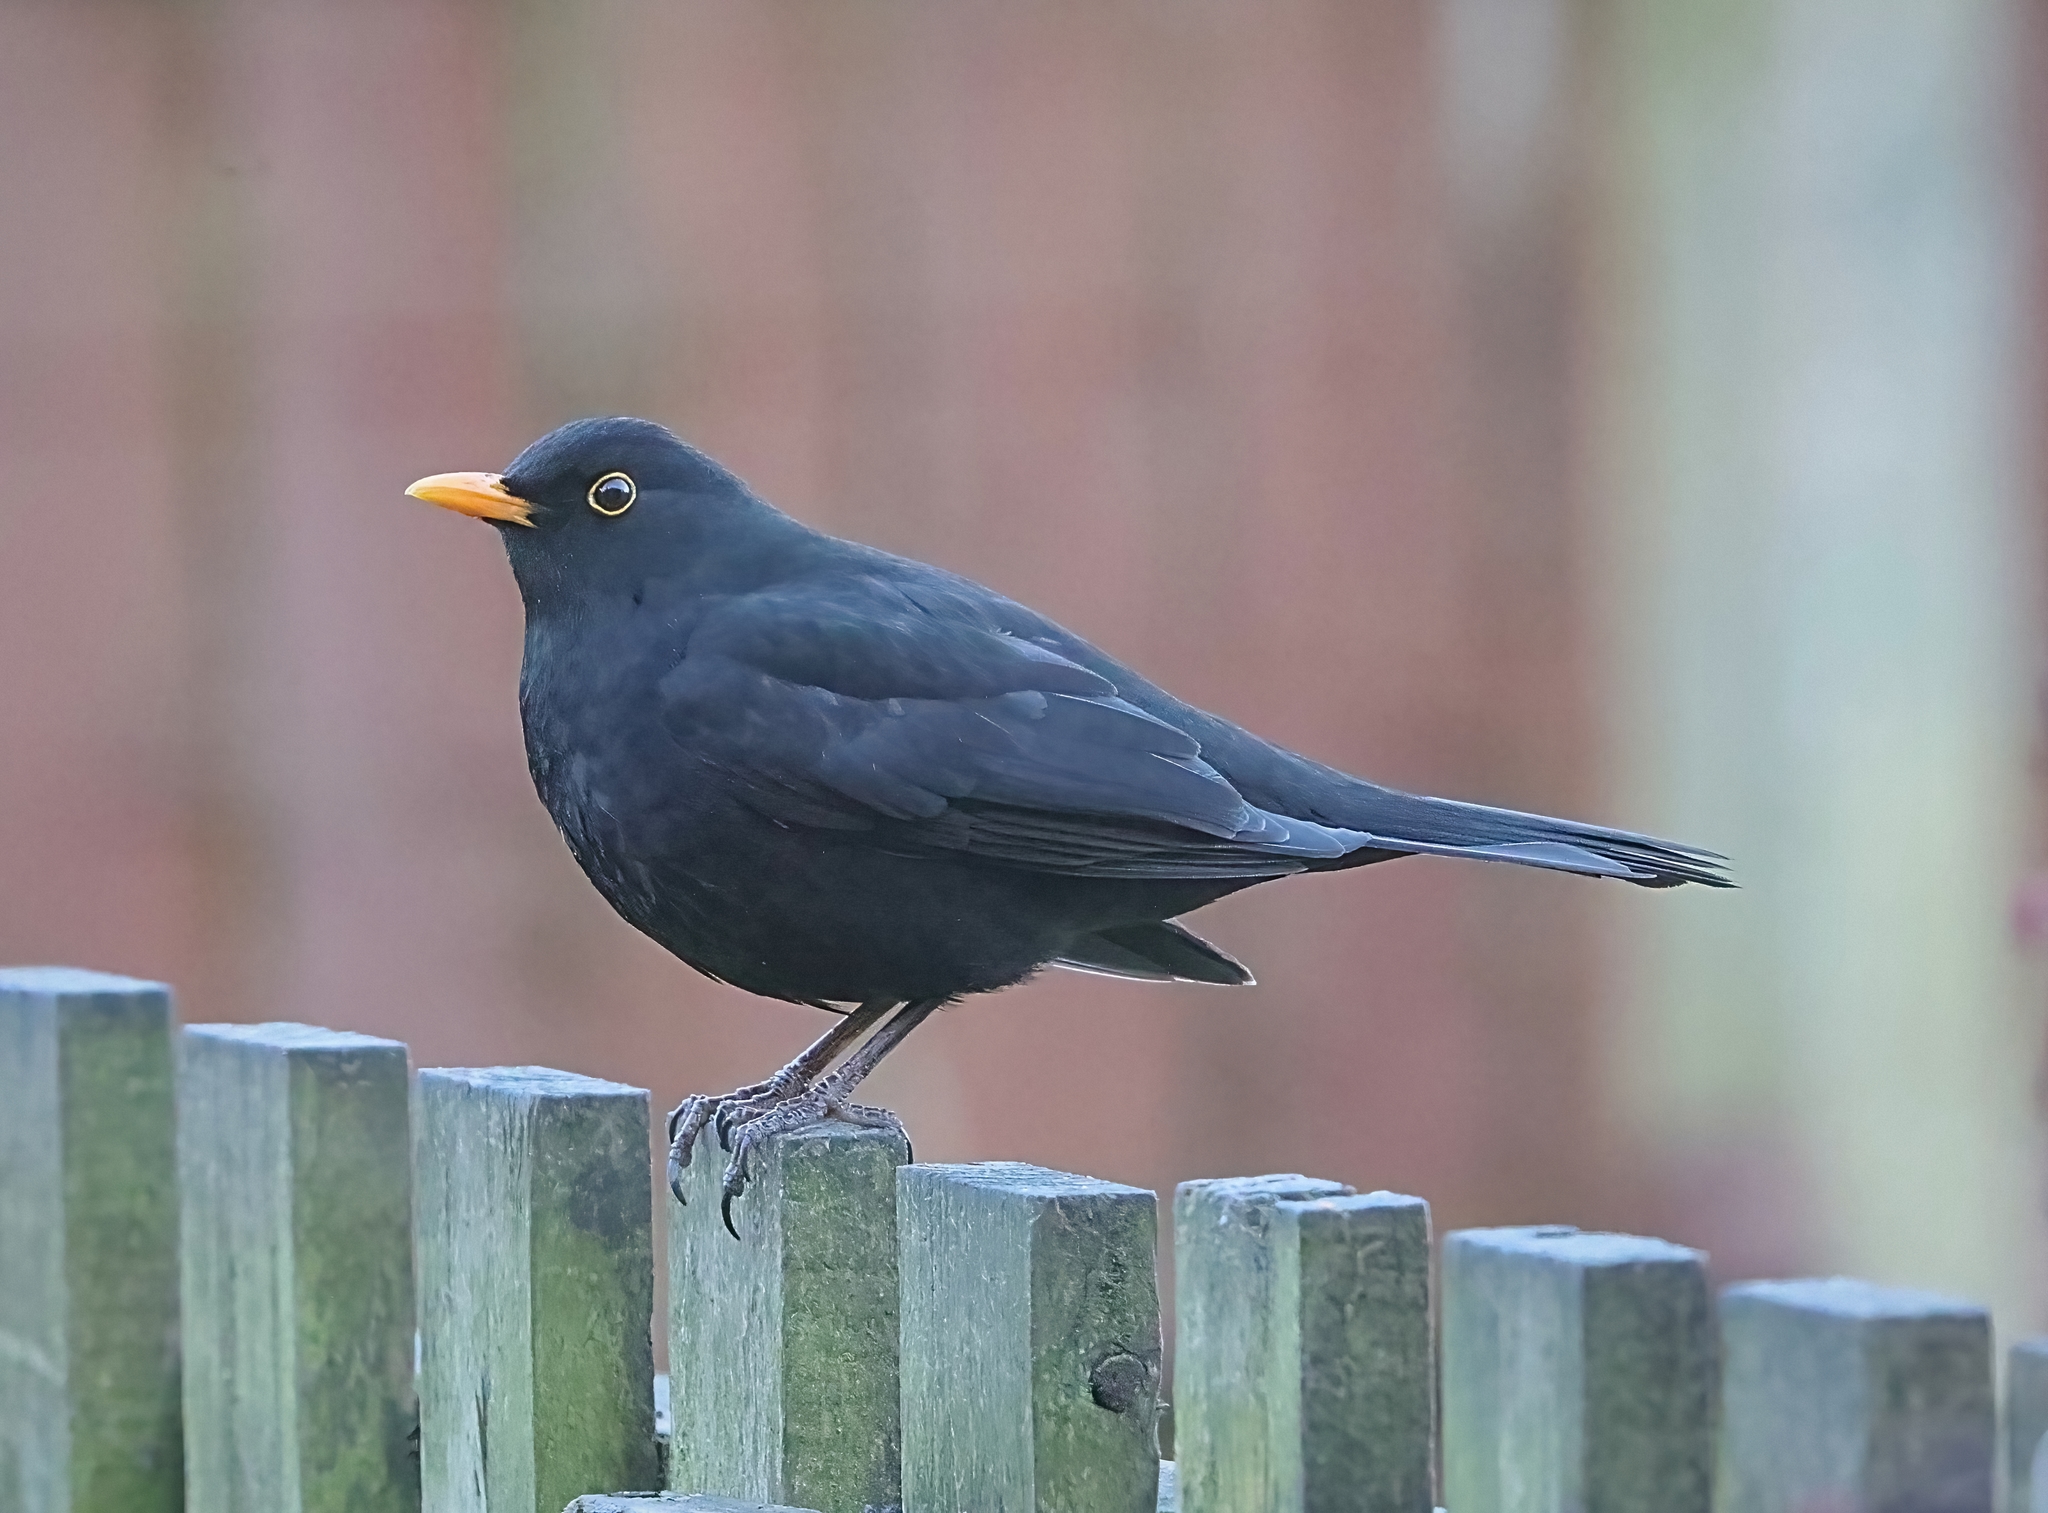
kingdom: Animalia
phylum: Chordata
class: Aves
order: Passeriformes
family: Turdidae
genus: Turdus
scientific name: Turdus merula
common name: Common blackbird
